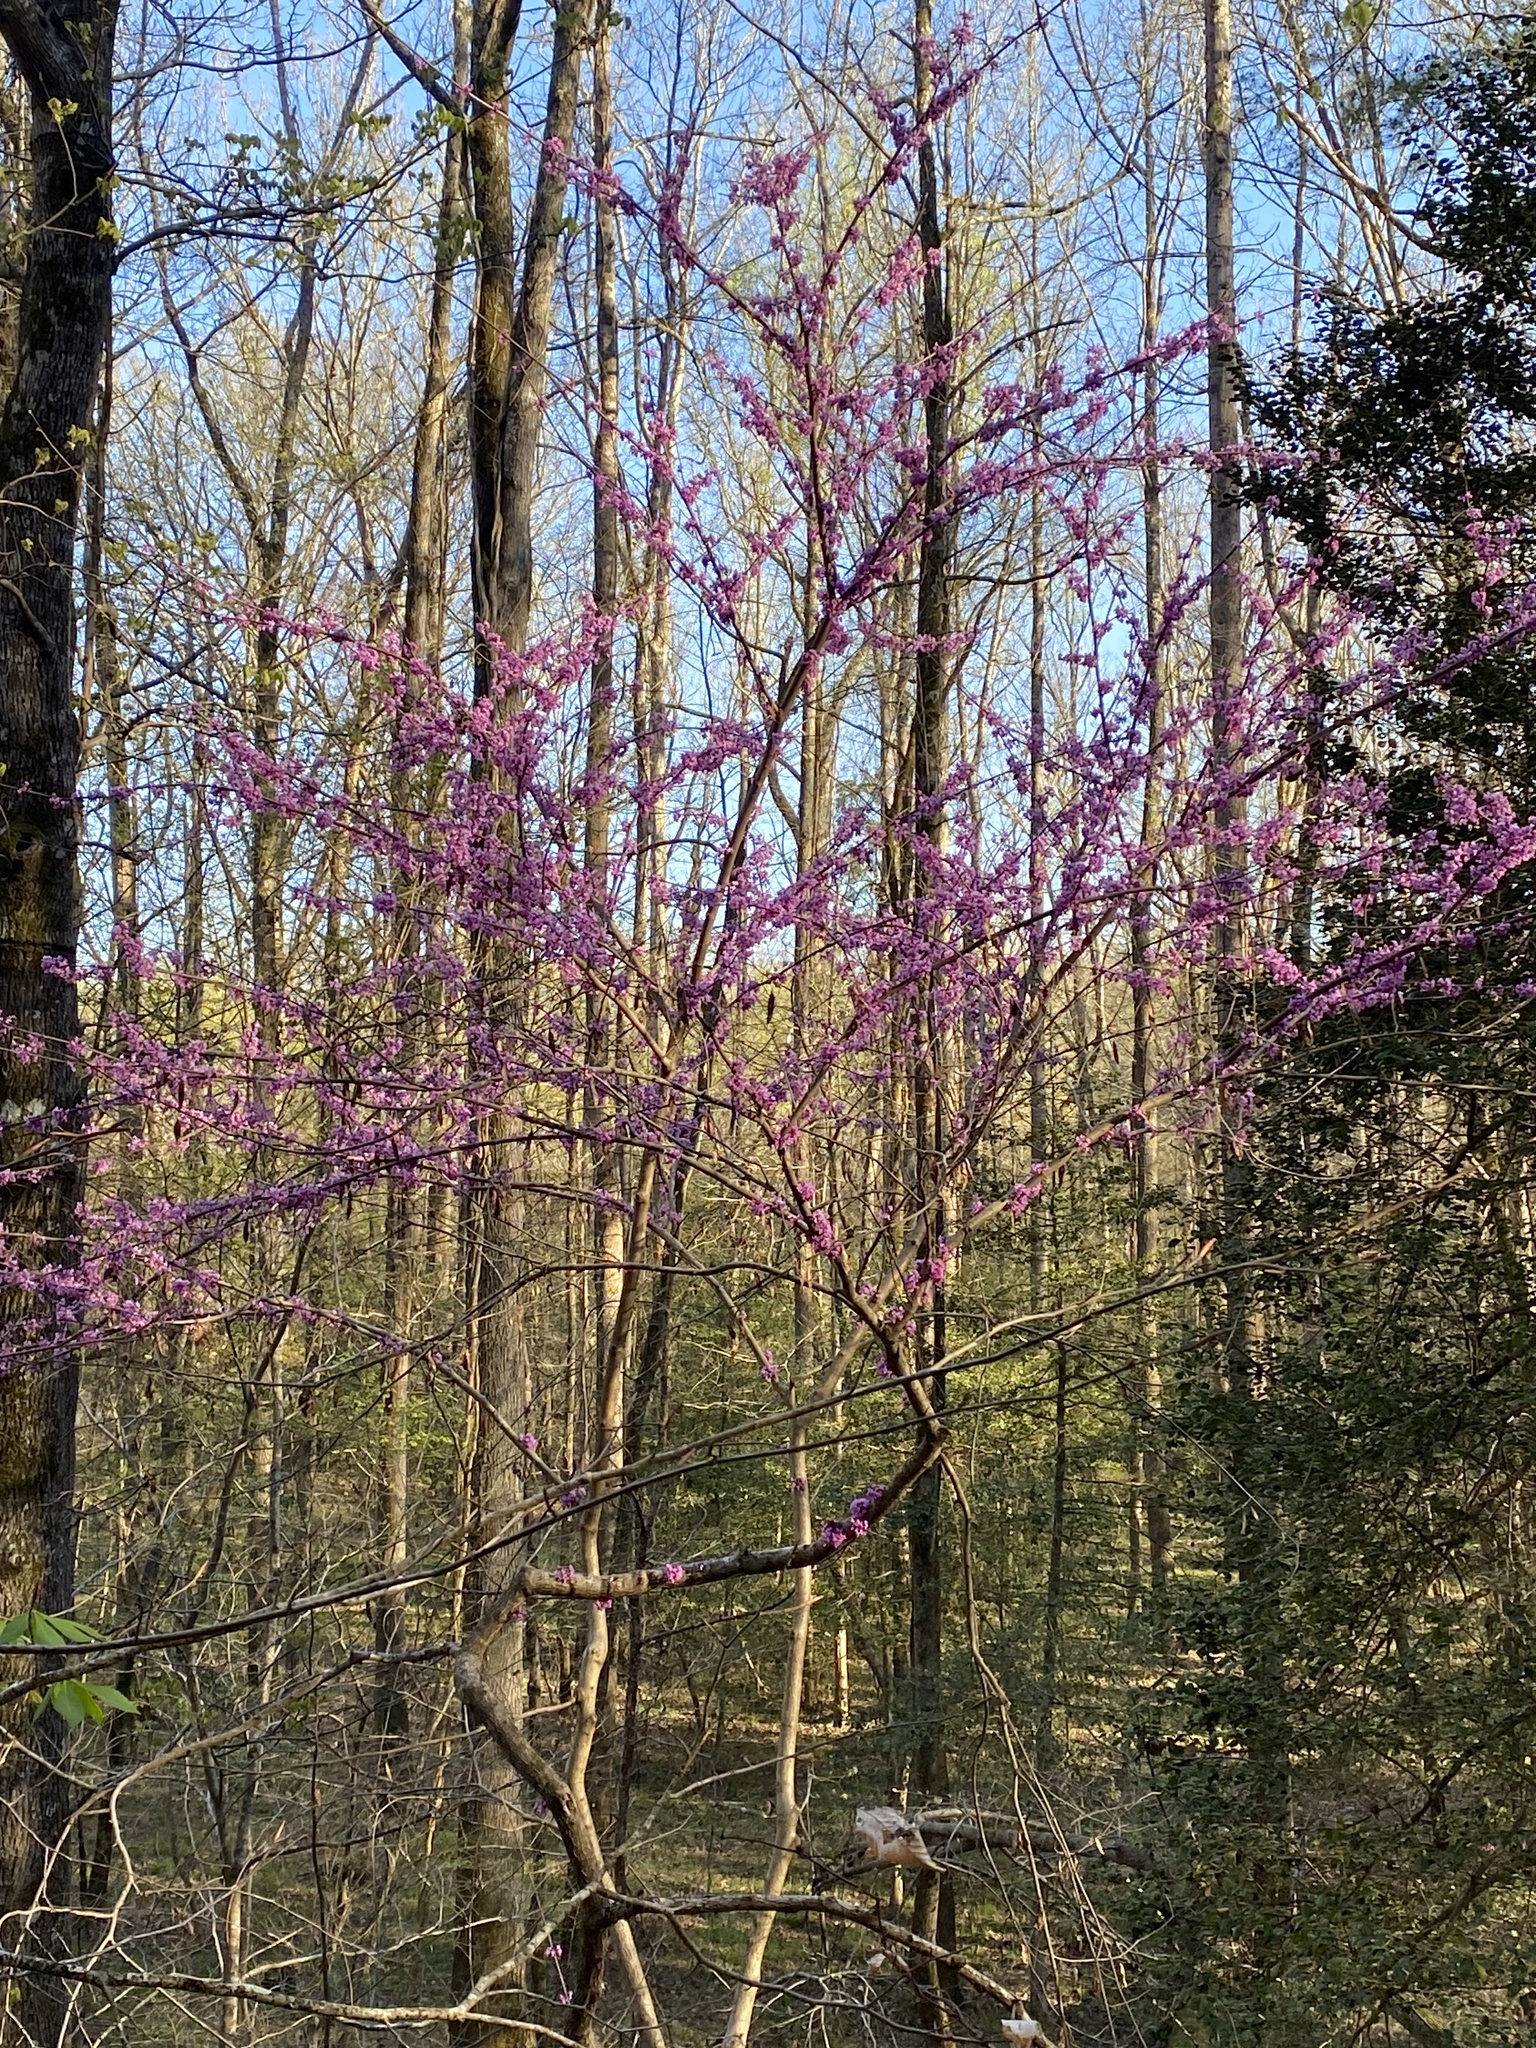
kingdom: Plantae
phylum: Tracheophyta
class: Magnoliopsida
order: Fabales
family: Fabaceae
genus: Cercis
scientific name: Cercis canadensis
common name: Eastern redbud
